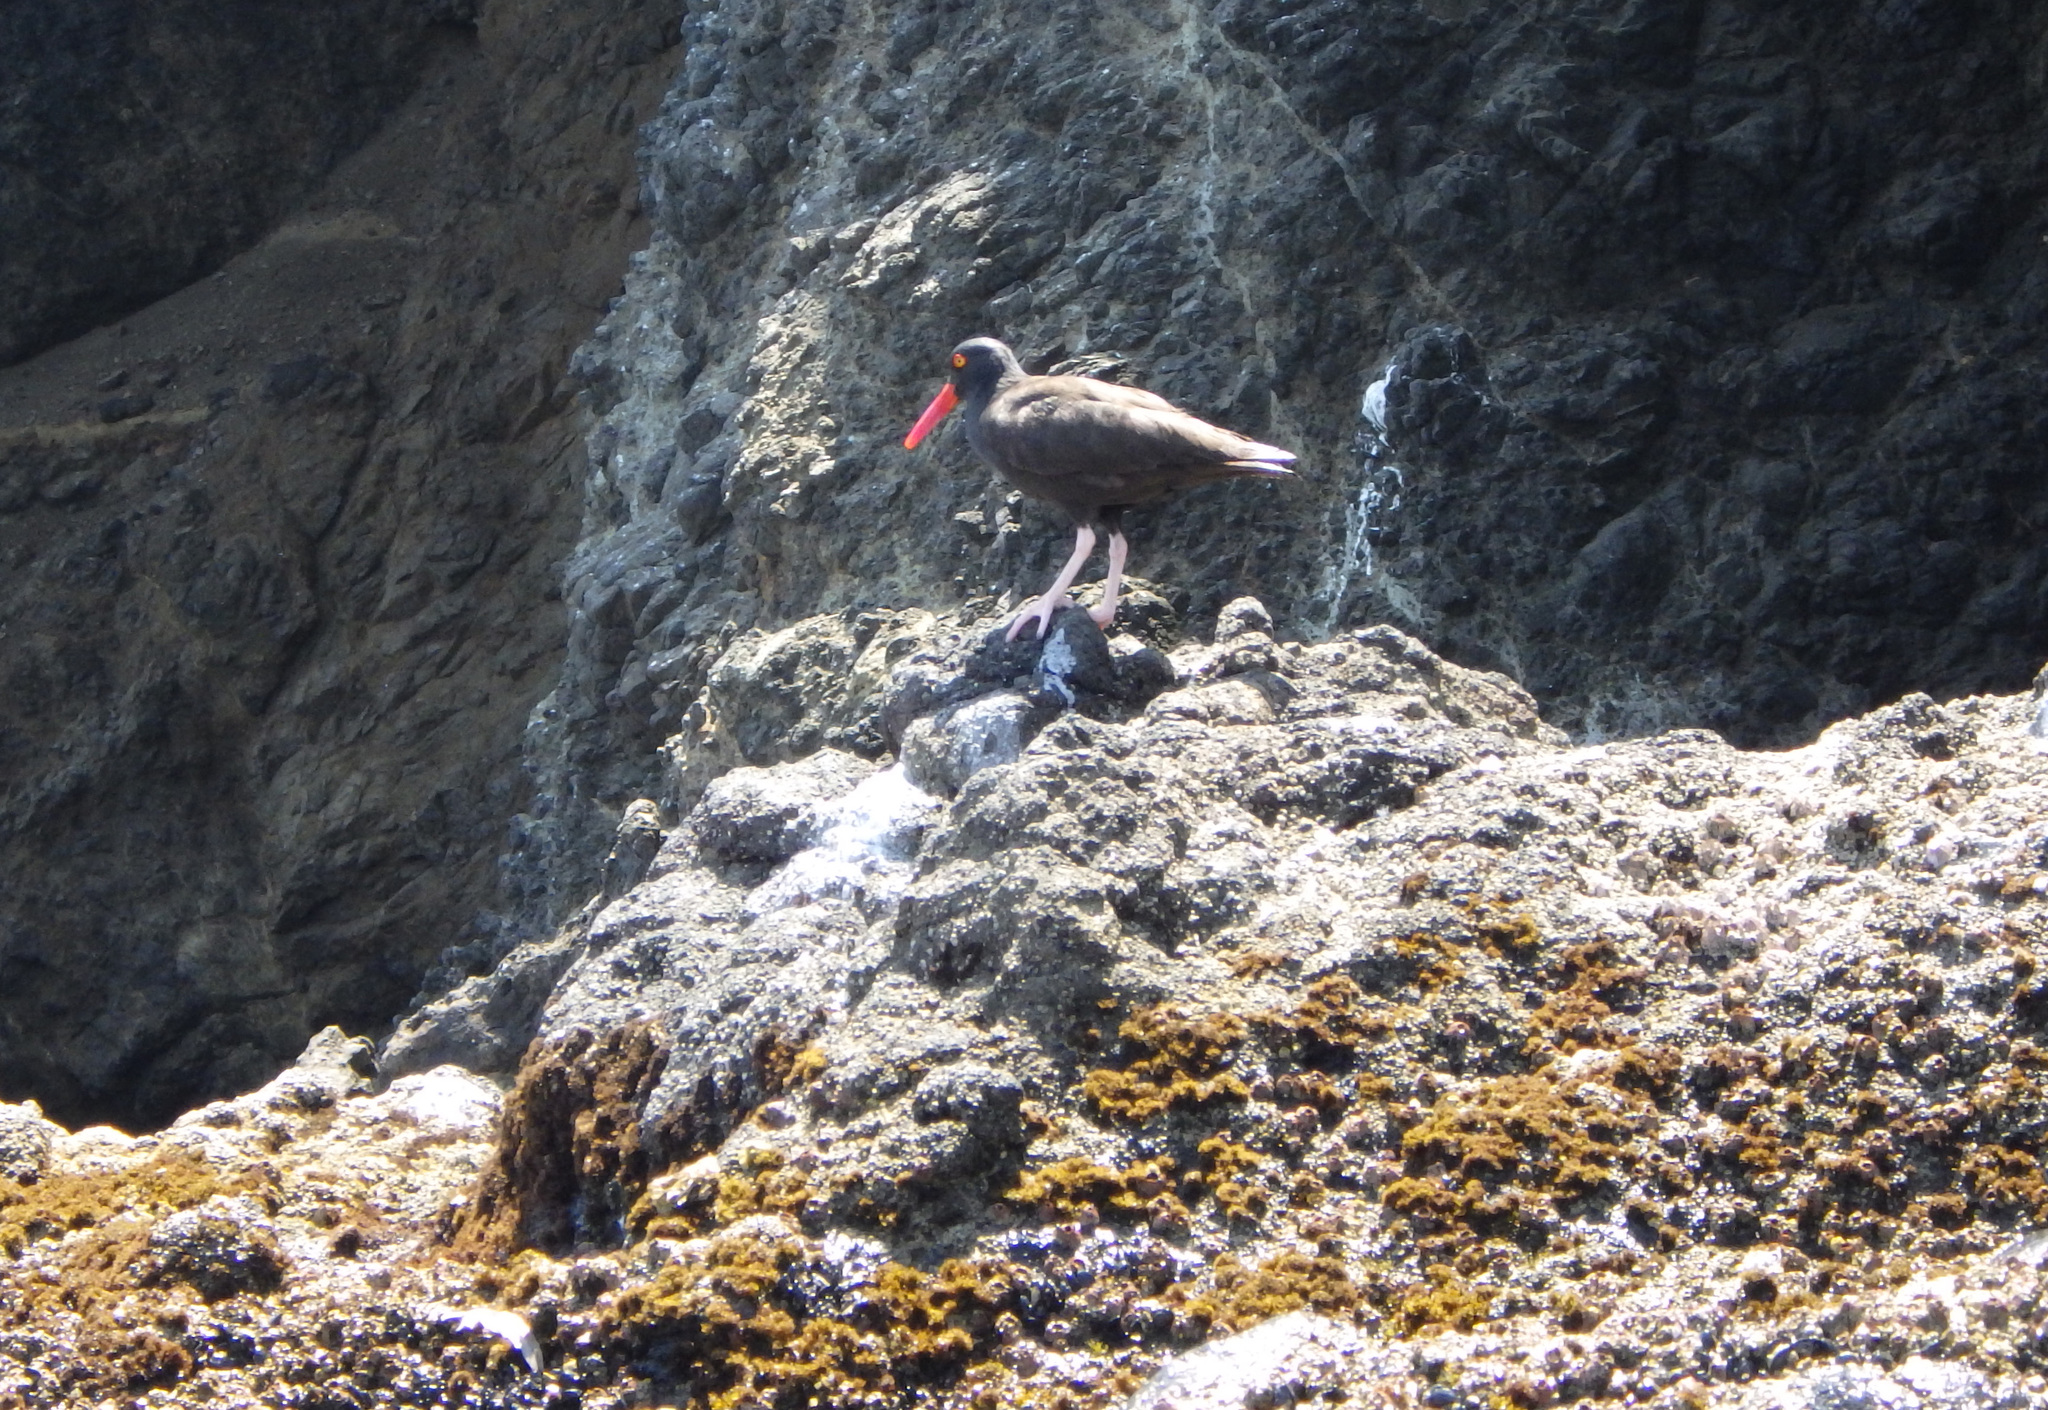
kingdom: Animalia
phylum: Chordata
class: Aves
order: Charadriiformes
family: Haematopodidae
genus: Haematopus
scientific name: Haematopus bachmani
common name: Black oystercatcher
